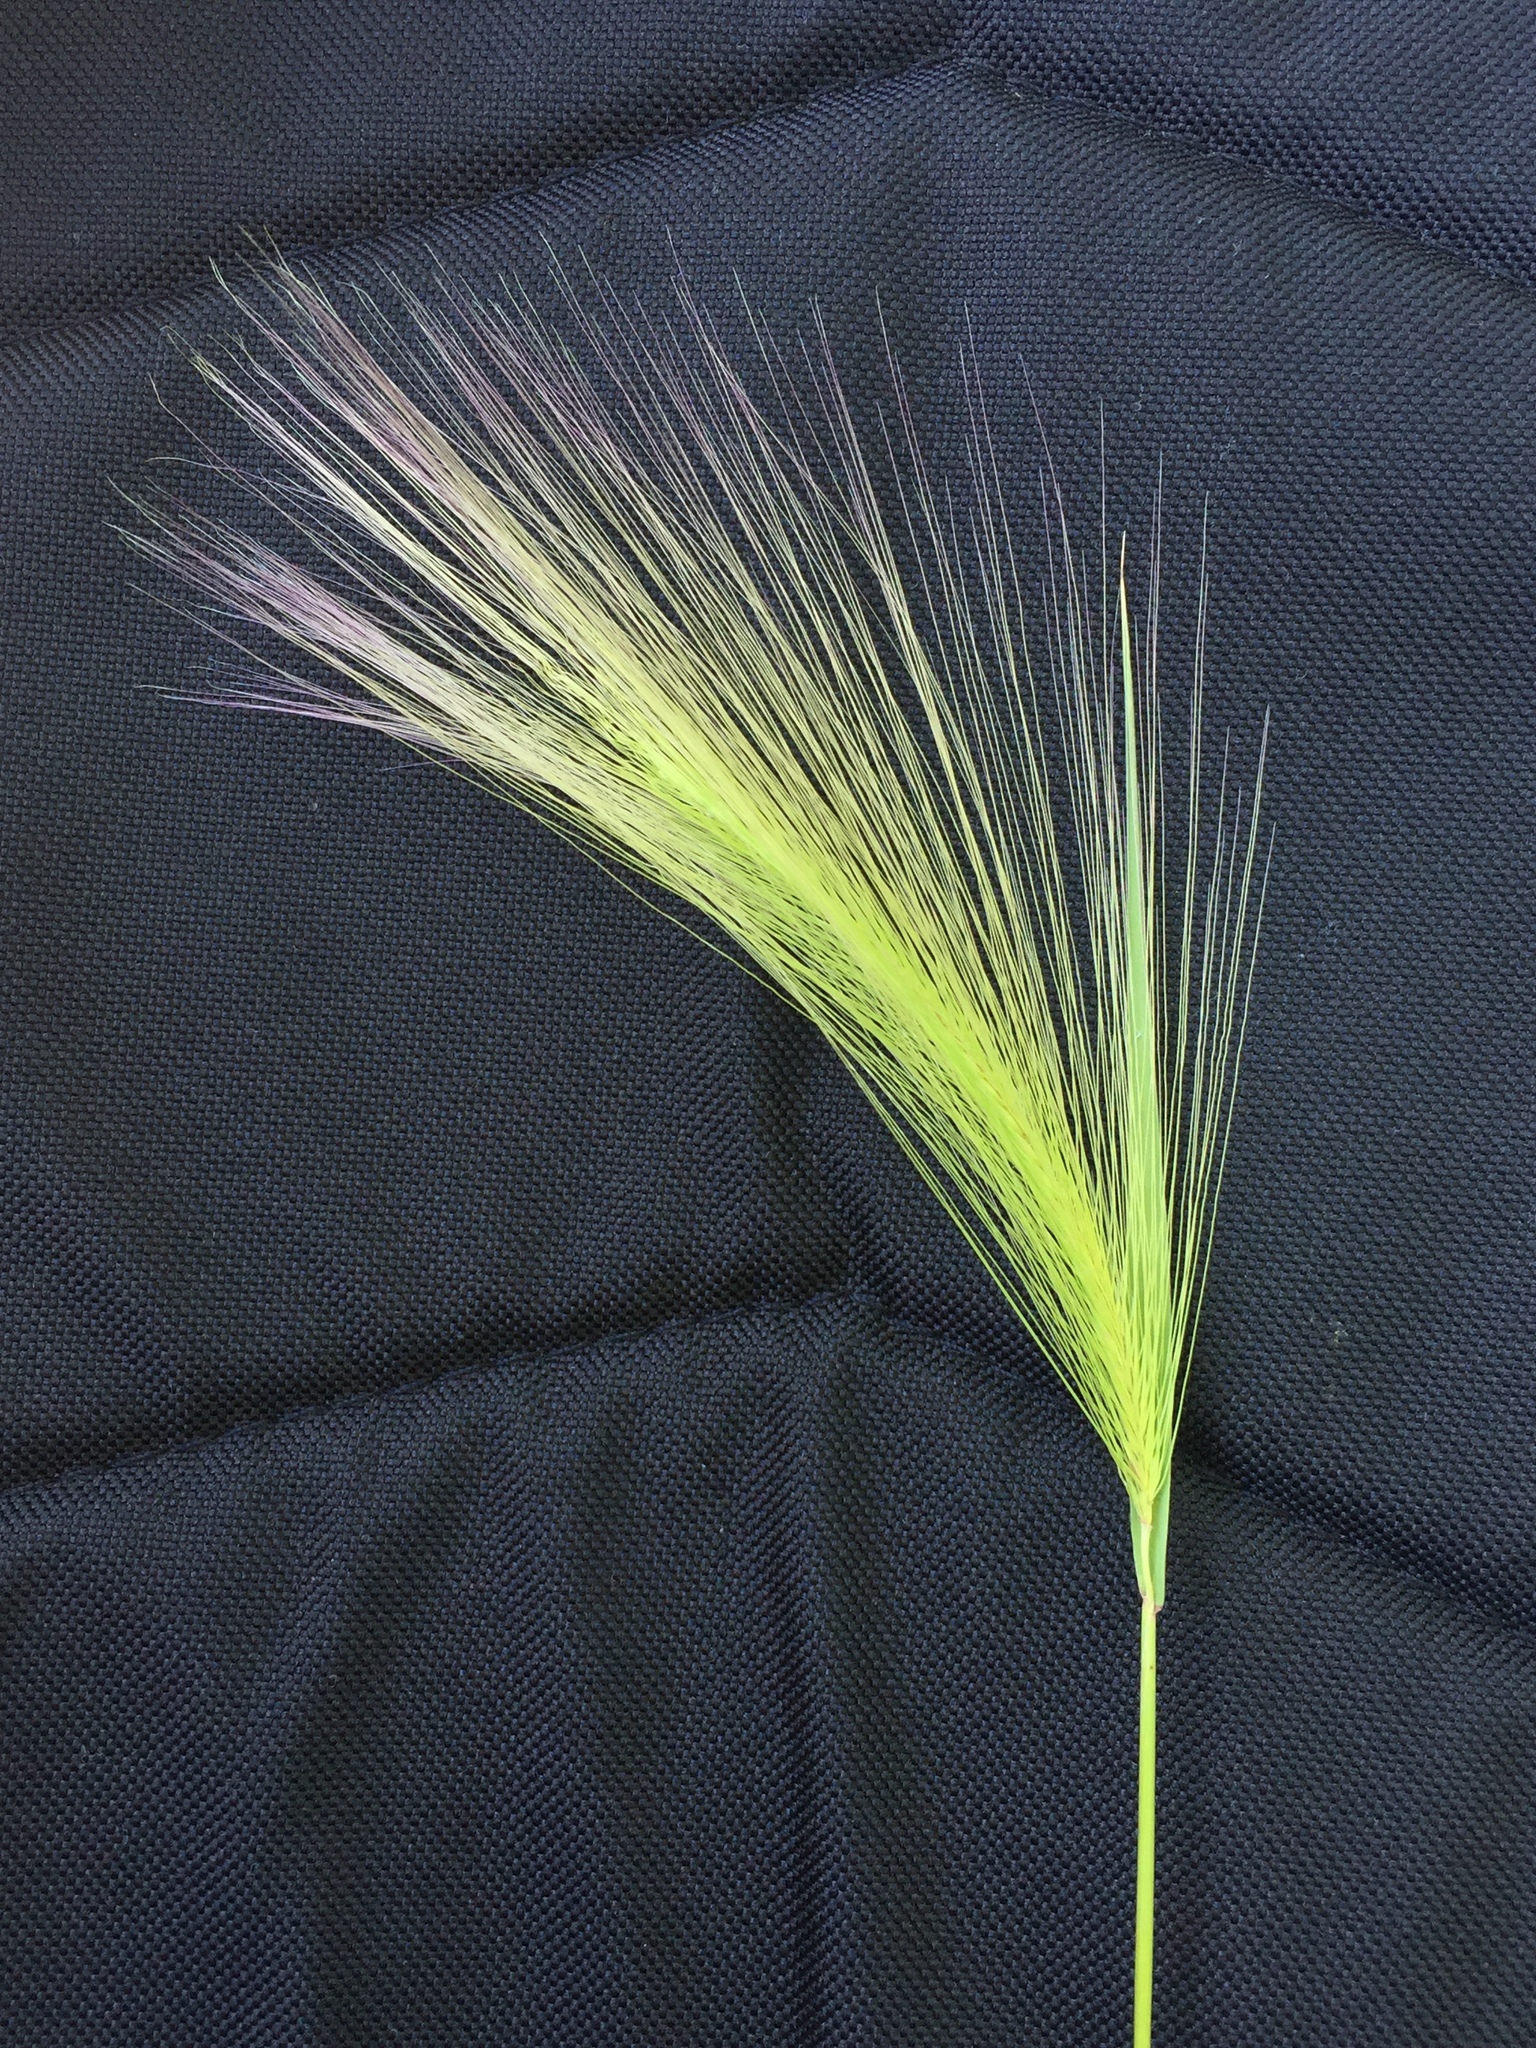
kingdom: Plantae
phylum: Tracheophyta
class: Liliopsida
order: Poales
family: Poaceae
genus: Hordeum
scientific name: Hordeum jubatum
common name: Foxtail barley
